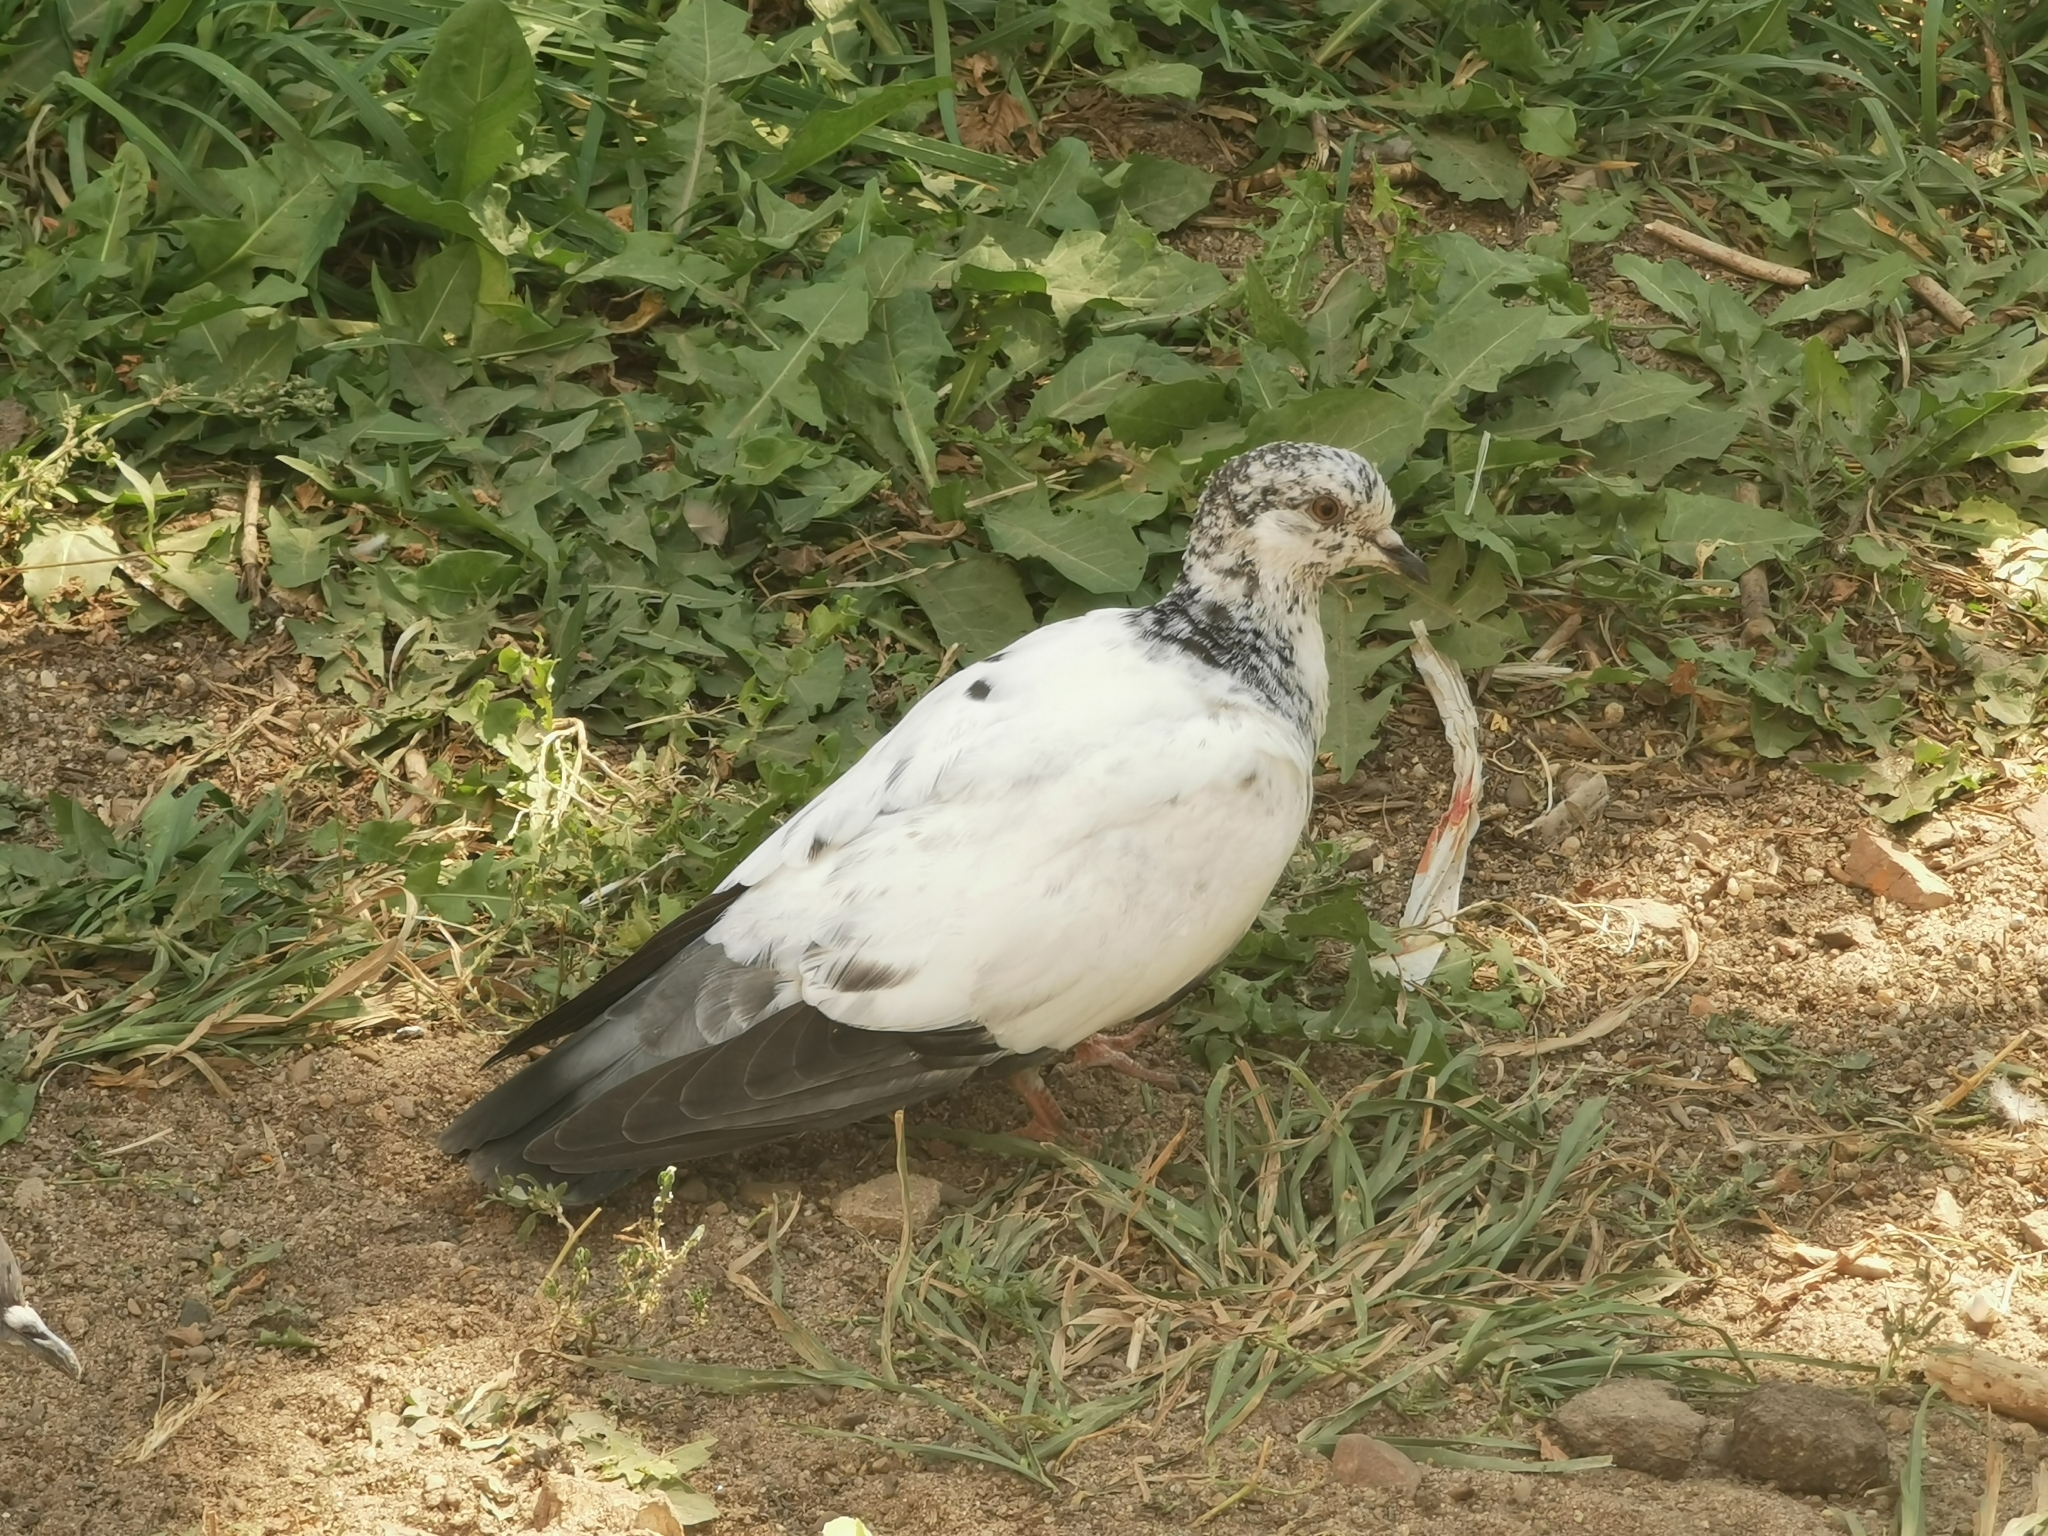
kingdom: Animalia
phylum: Chordata
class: Aves
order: Columbiformes
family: Columbidae
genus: Columba
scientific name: Columba livia
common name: Rock pigeon
